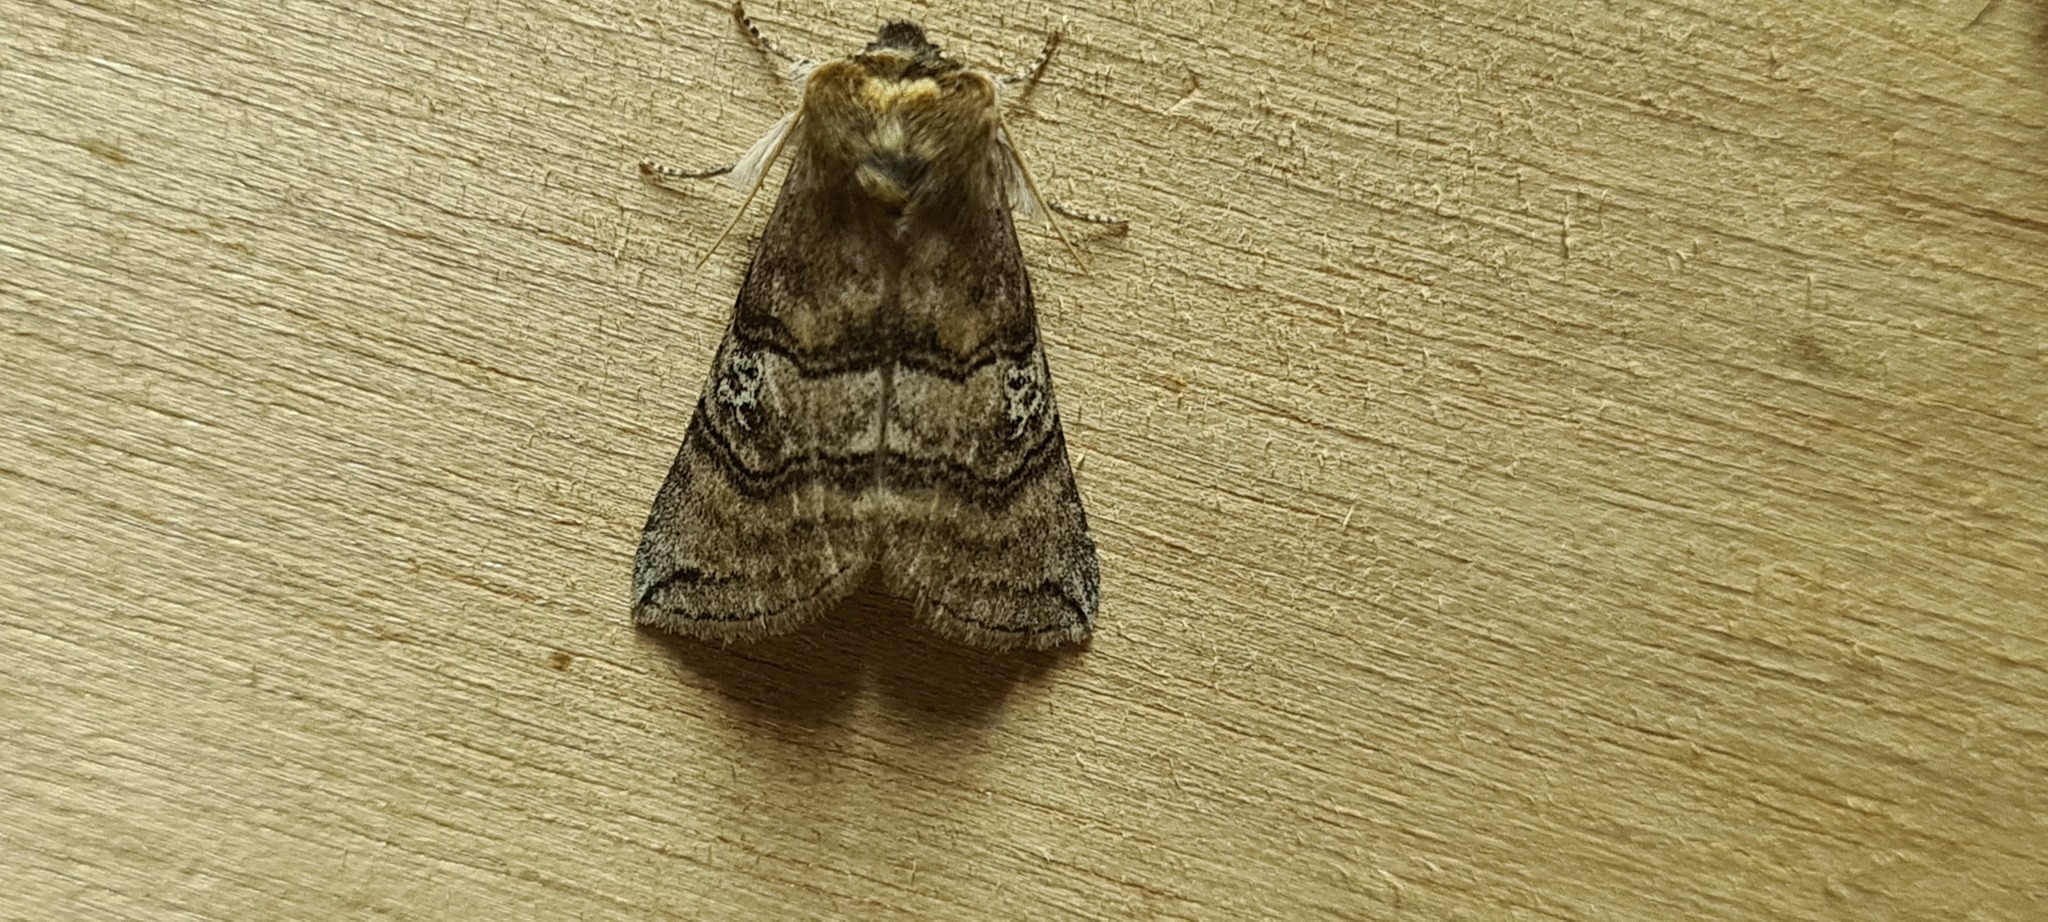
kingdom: Animalia
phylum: Arthropoda
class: Insecta
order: Lepidoptera
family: Drepanidae
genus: Tethea
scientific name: Tethea ocularis
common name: Figure of eighty
